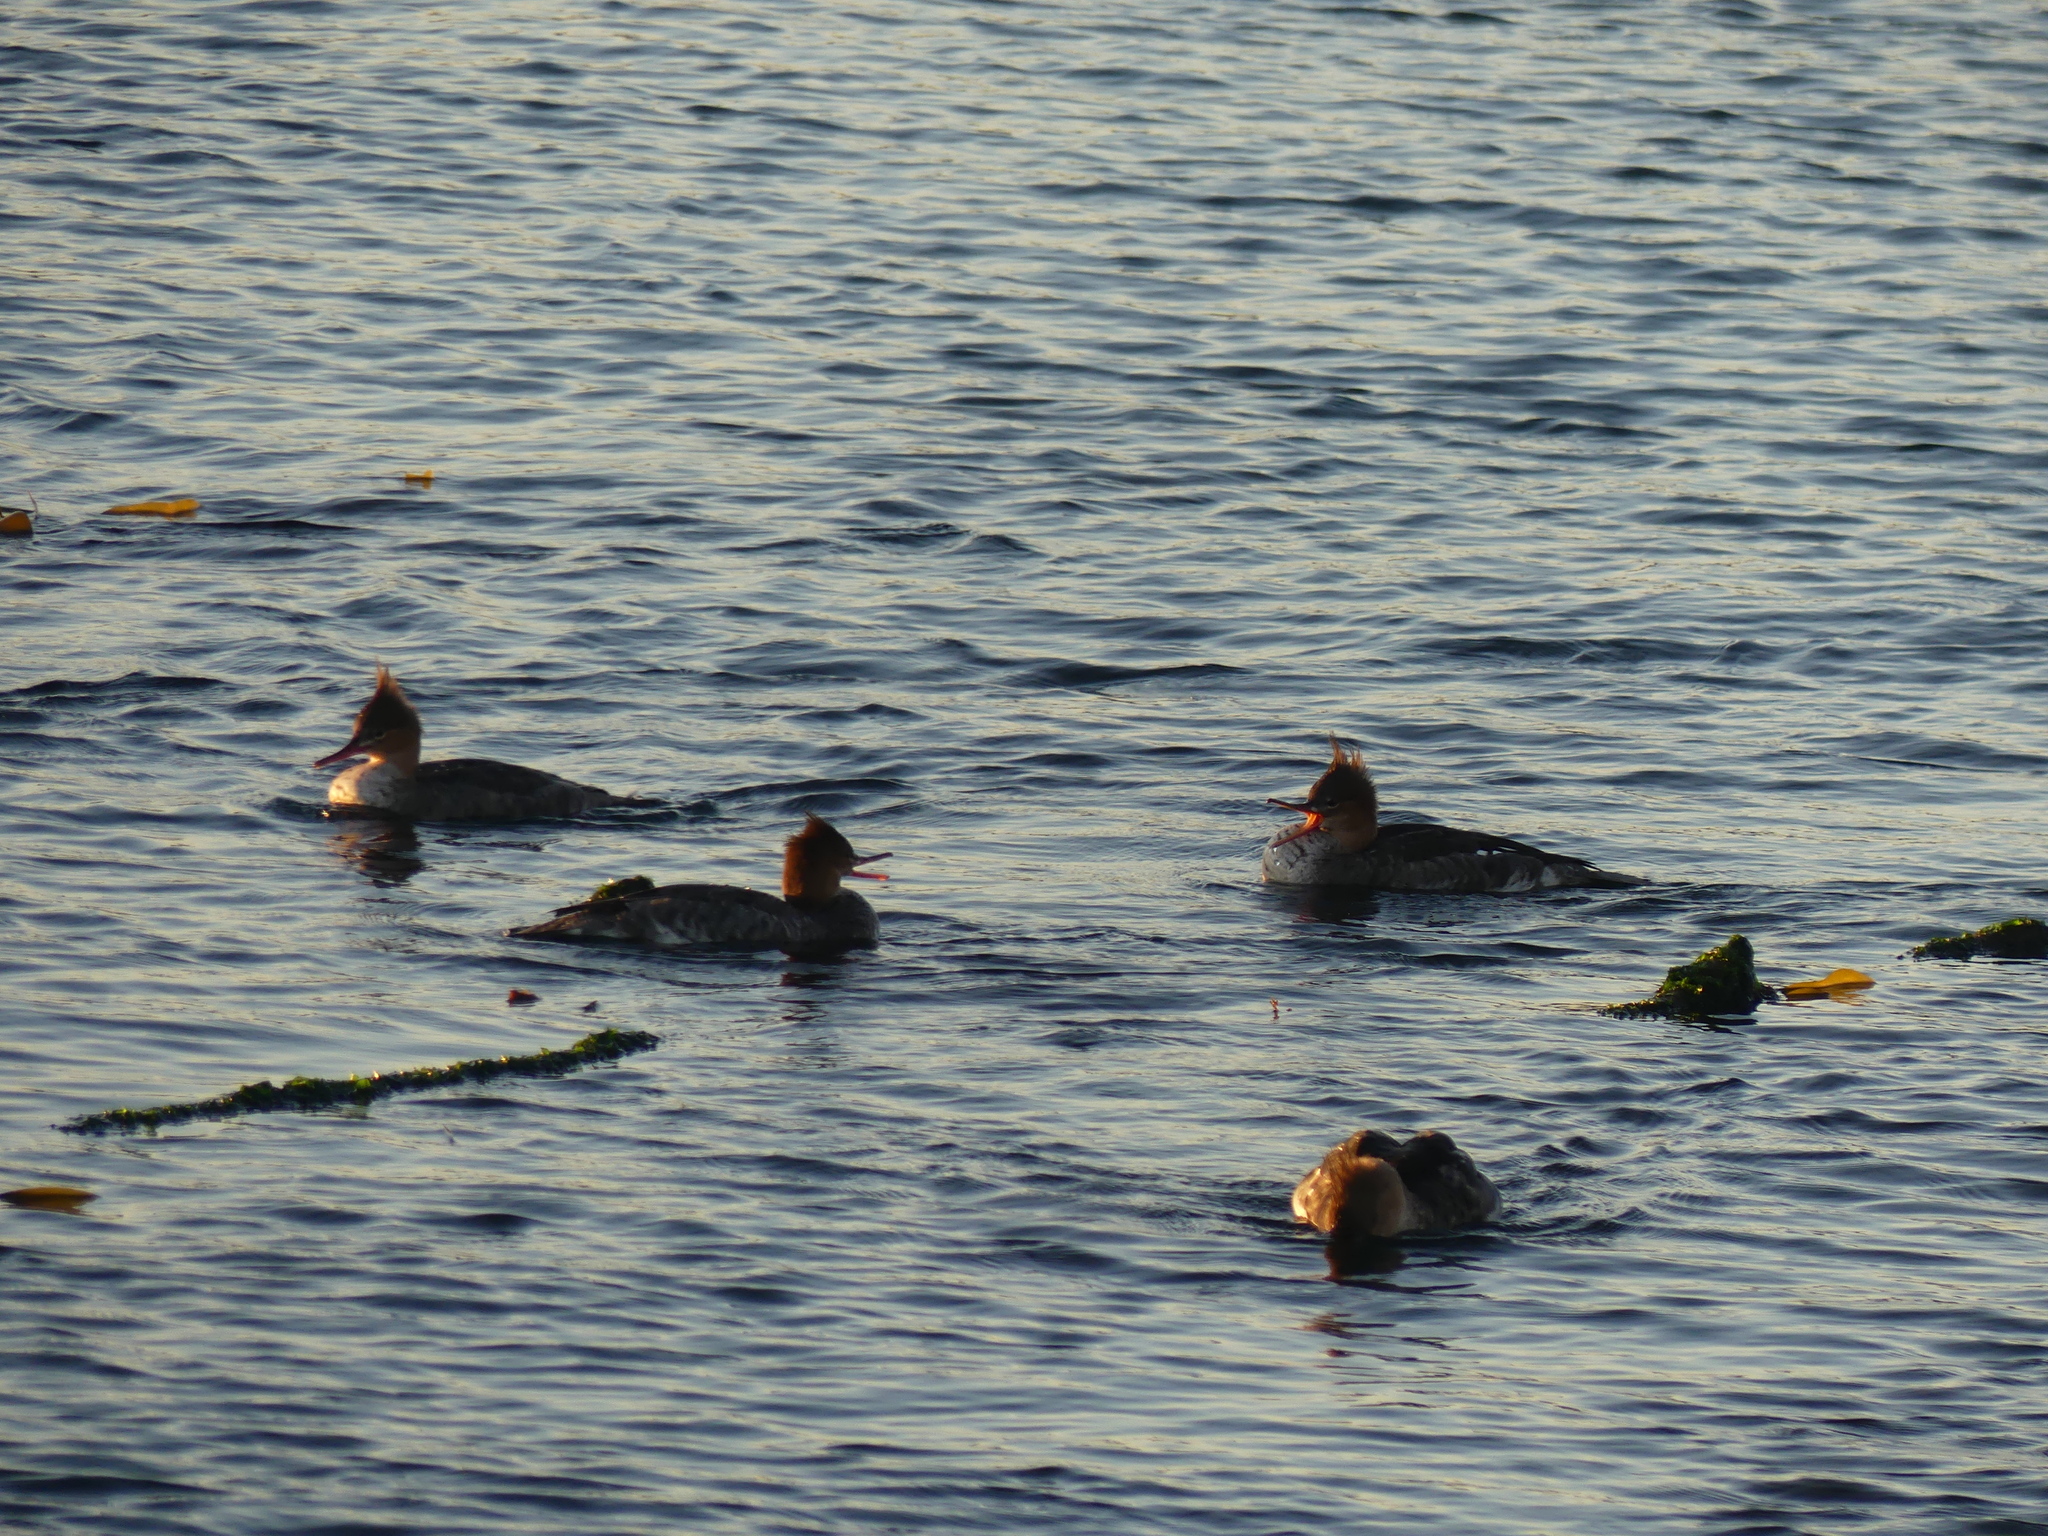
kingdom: Animalia
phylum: Chordata
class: Aves
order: Anseriformes
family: Anatidae
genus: Mergus
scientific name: Mergus serrator
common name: Red-breasted merganser
